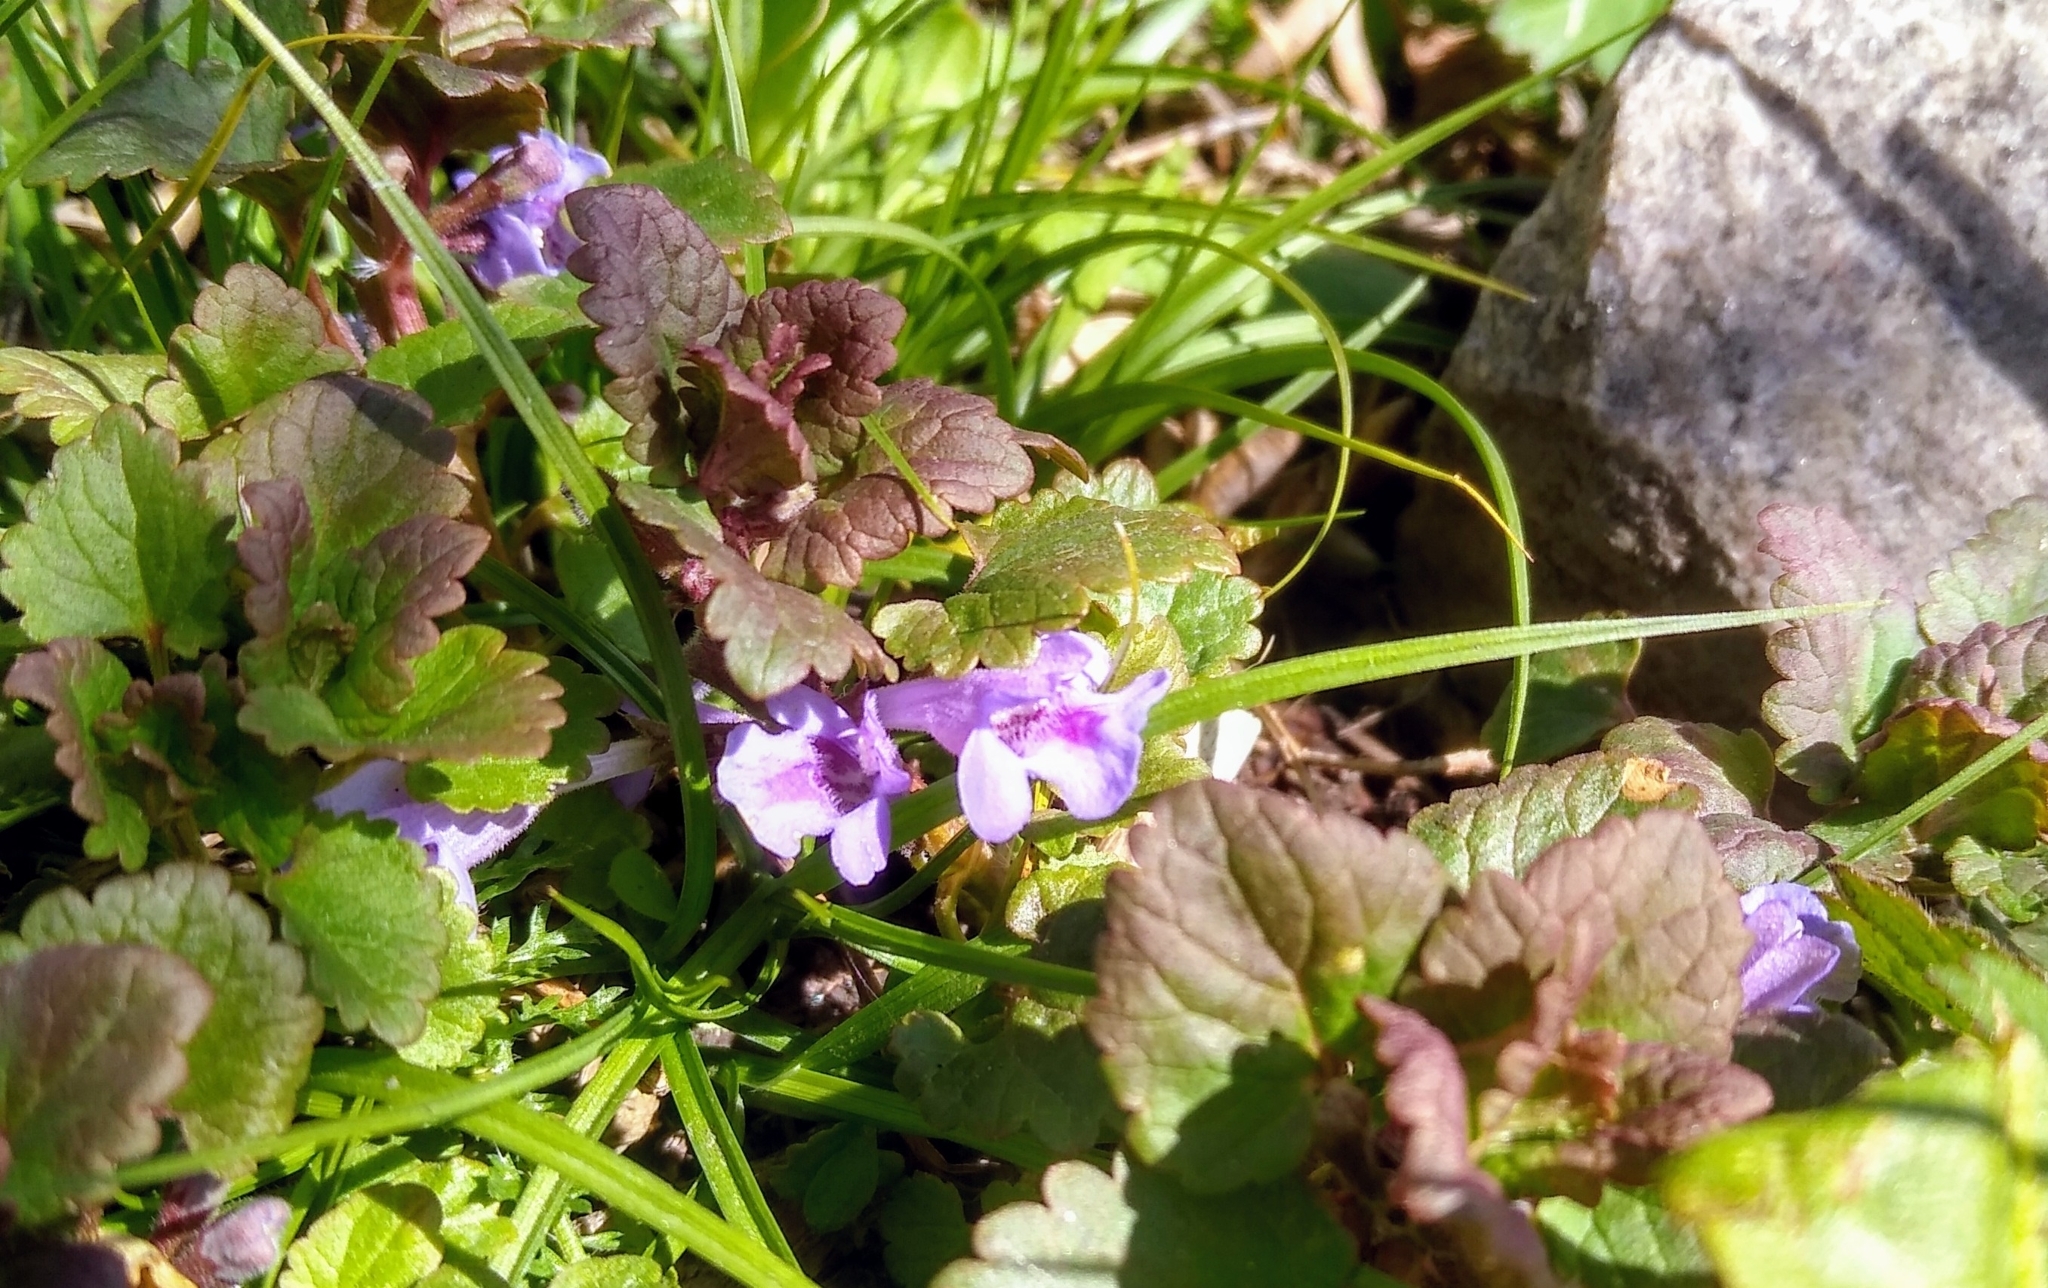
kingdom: Plantae
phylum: Tracheophyta
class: Magnoliopsida
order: Lamiales
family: Lamiaceae
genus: Glechoma
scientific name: Glechoma hederacea
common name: Ground ivy
